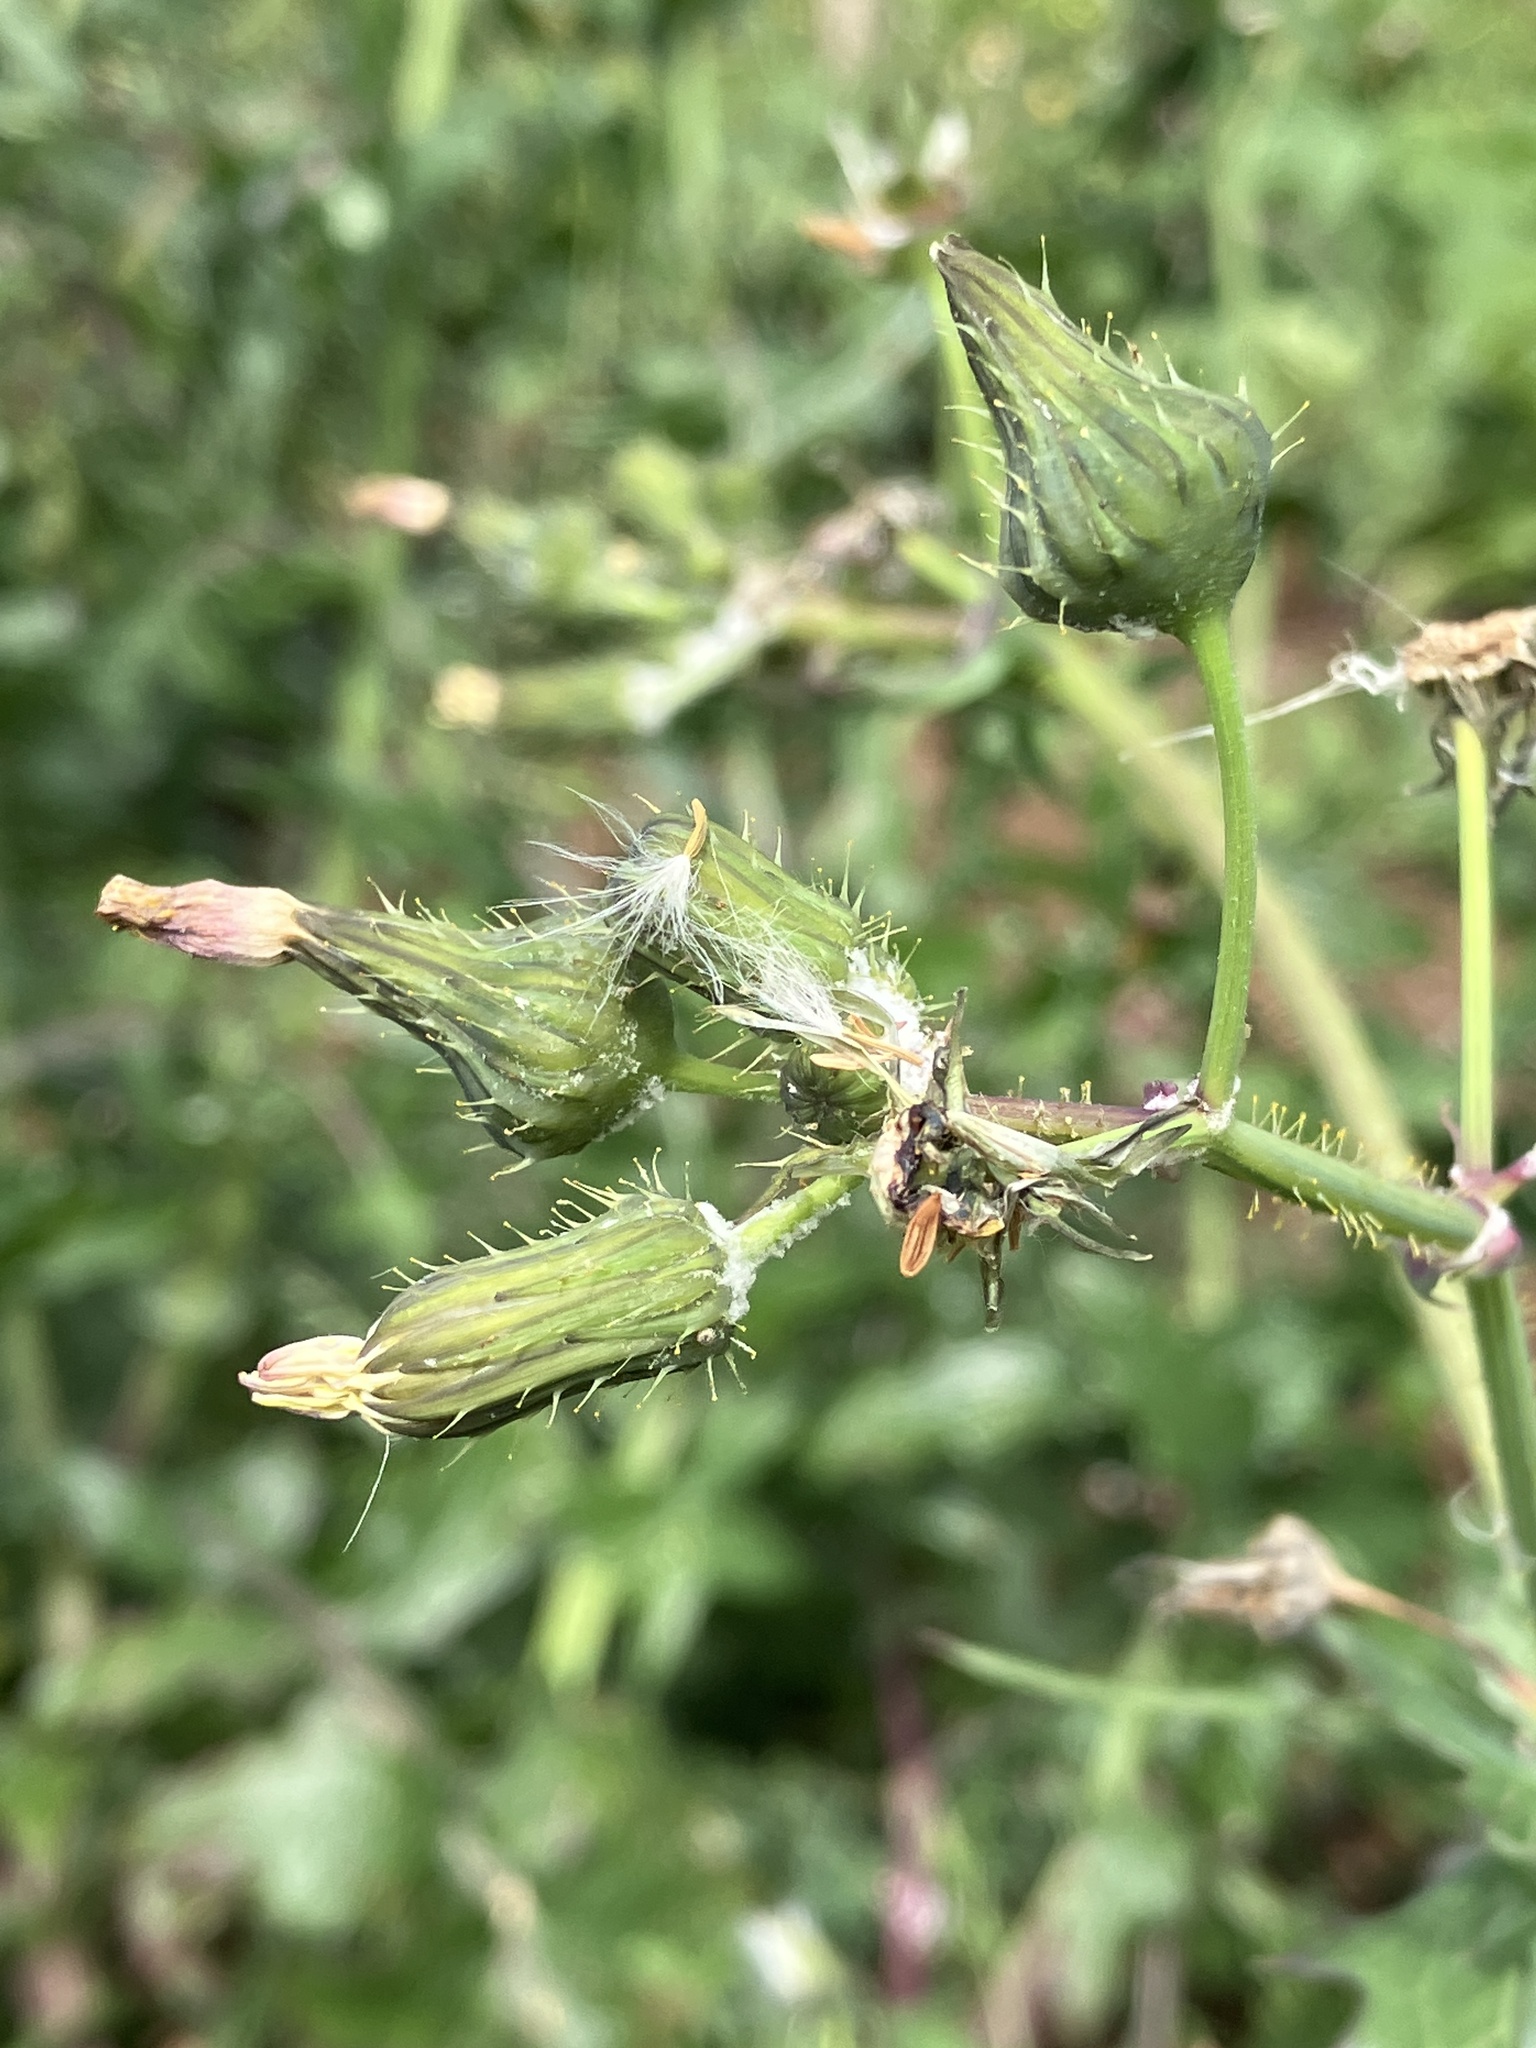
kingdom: Plantae
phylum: Tracheophyta
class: Magnoliopsida
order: Asterales
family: Asteraceae
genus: Sonchus
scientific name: Sonchus oleraceus
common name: Common sowthistle
